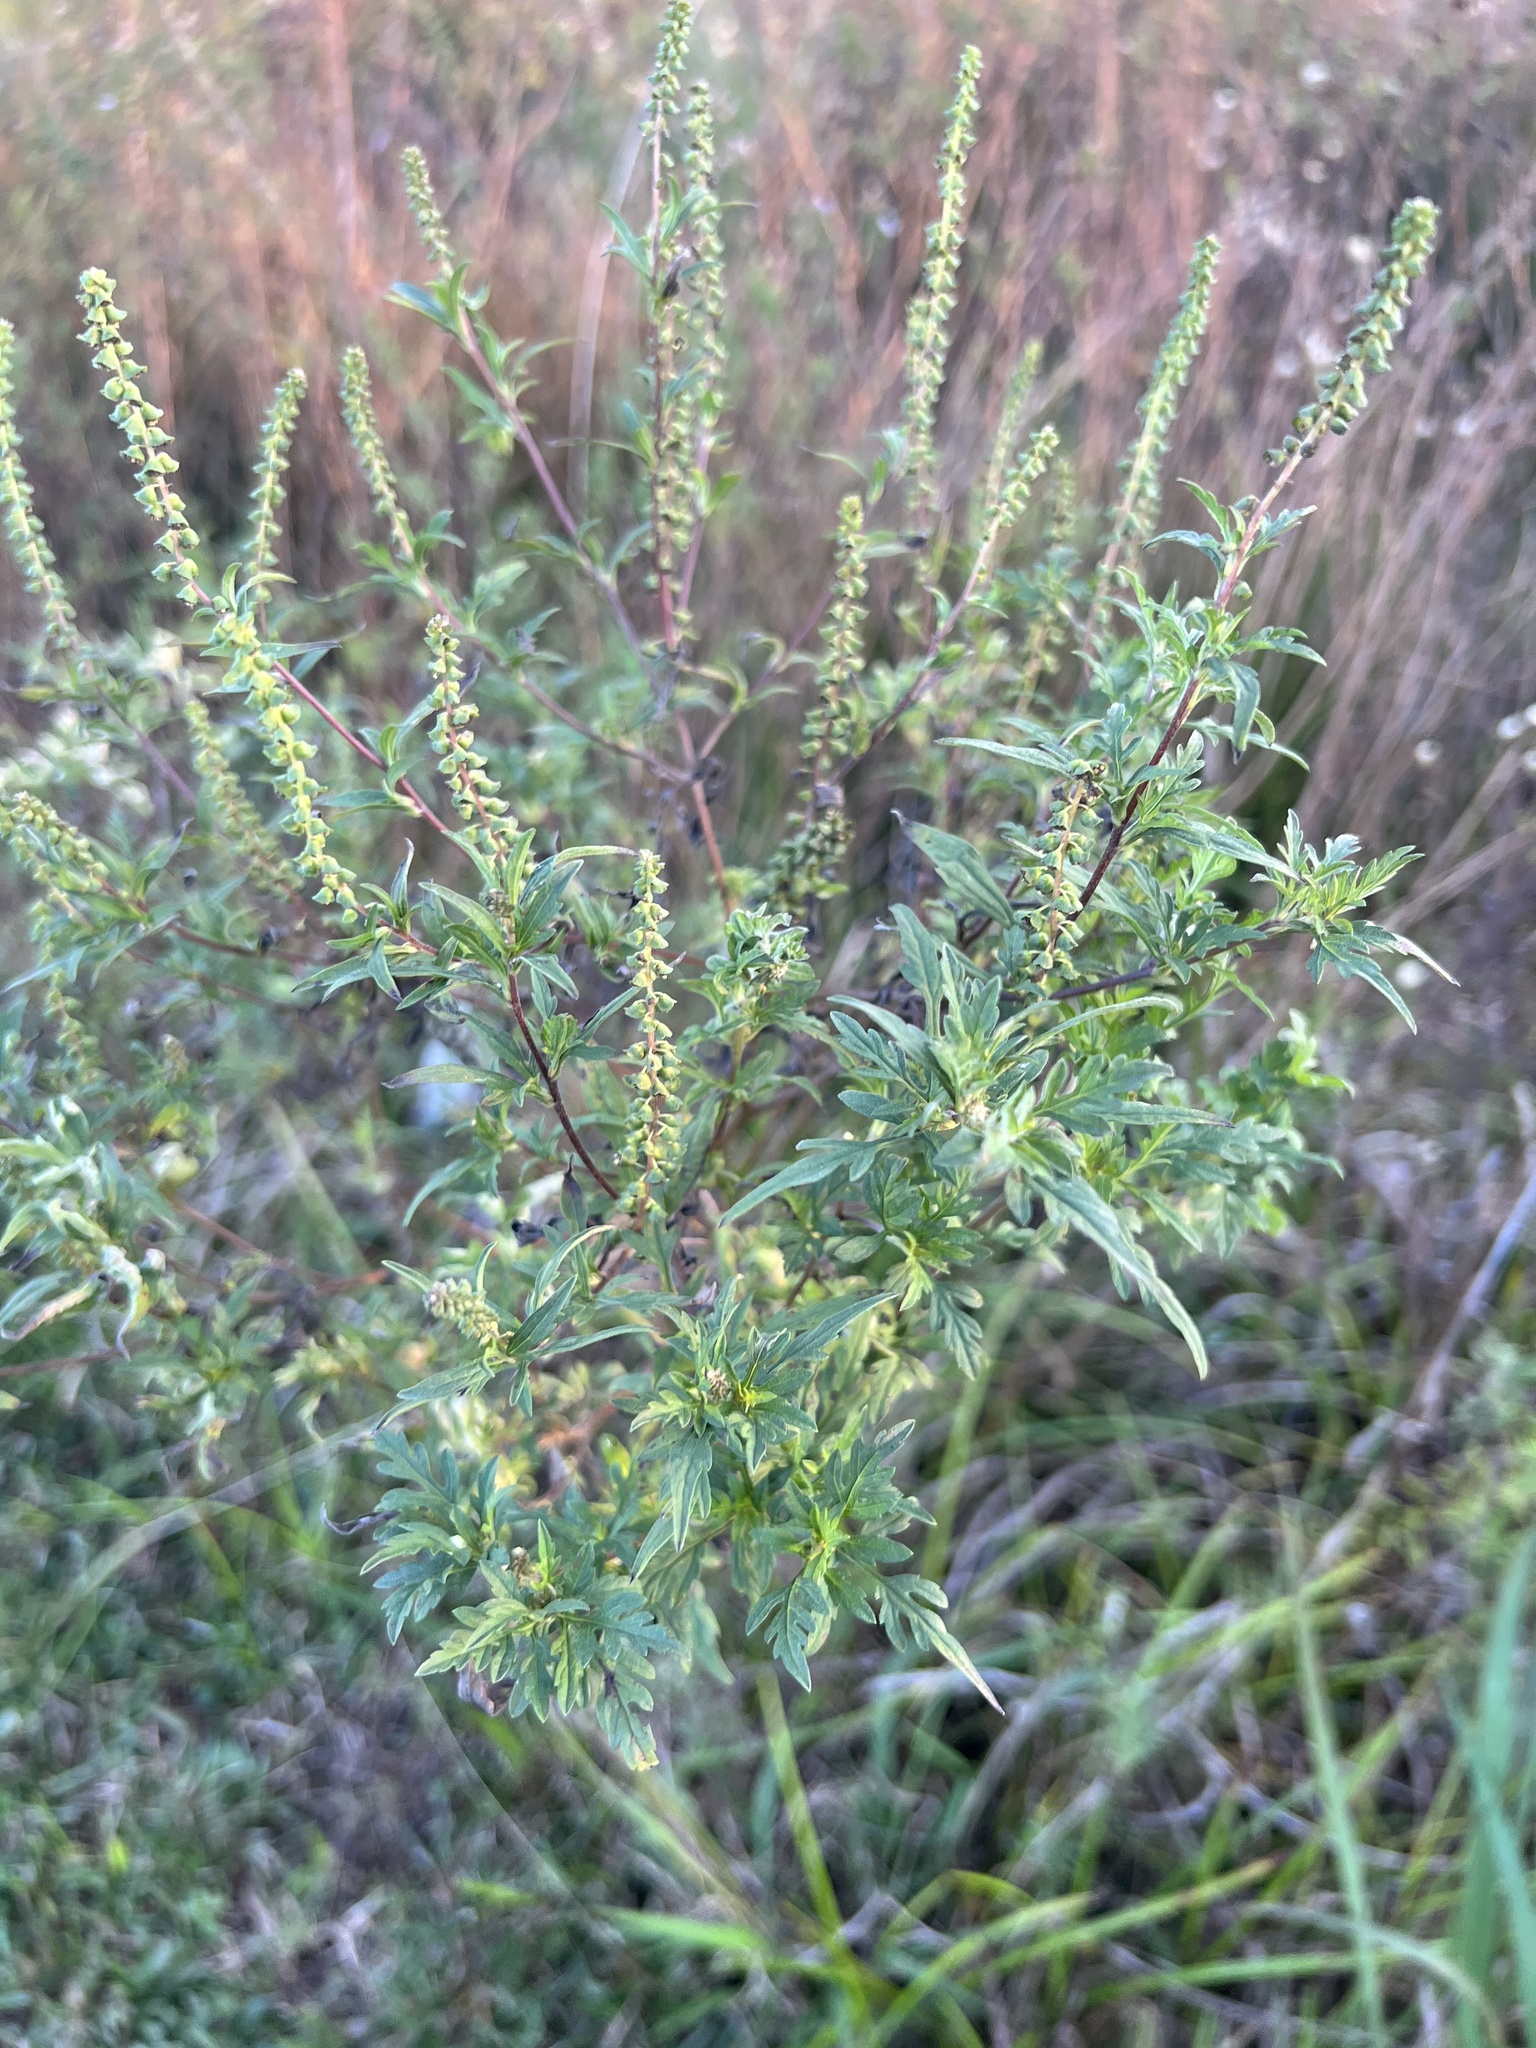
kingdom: Plantae
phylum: Tracheophyta
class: Magnoliopsida
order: Asterales
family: Asteraceae
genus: Ambrosia
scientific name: Ambrosia artemisiifolia
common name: Annual ragweed
